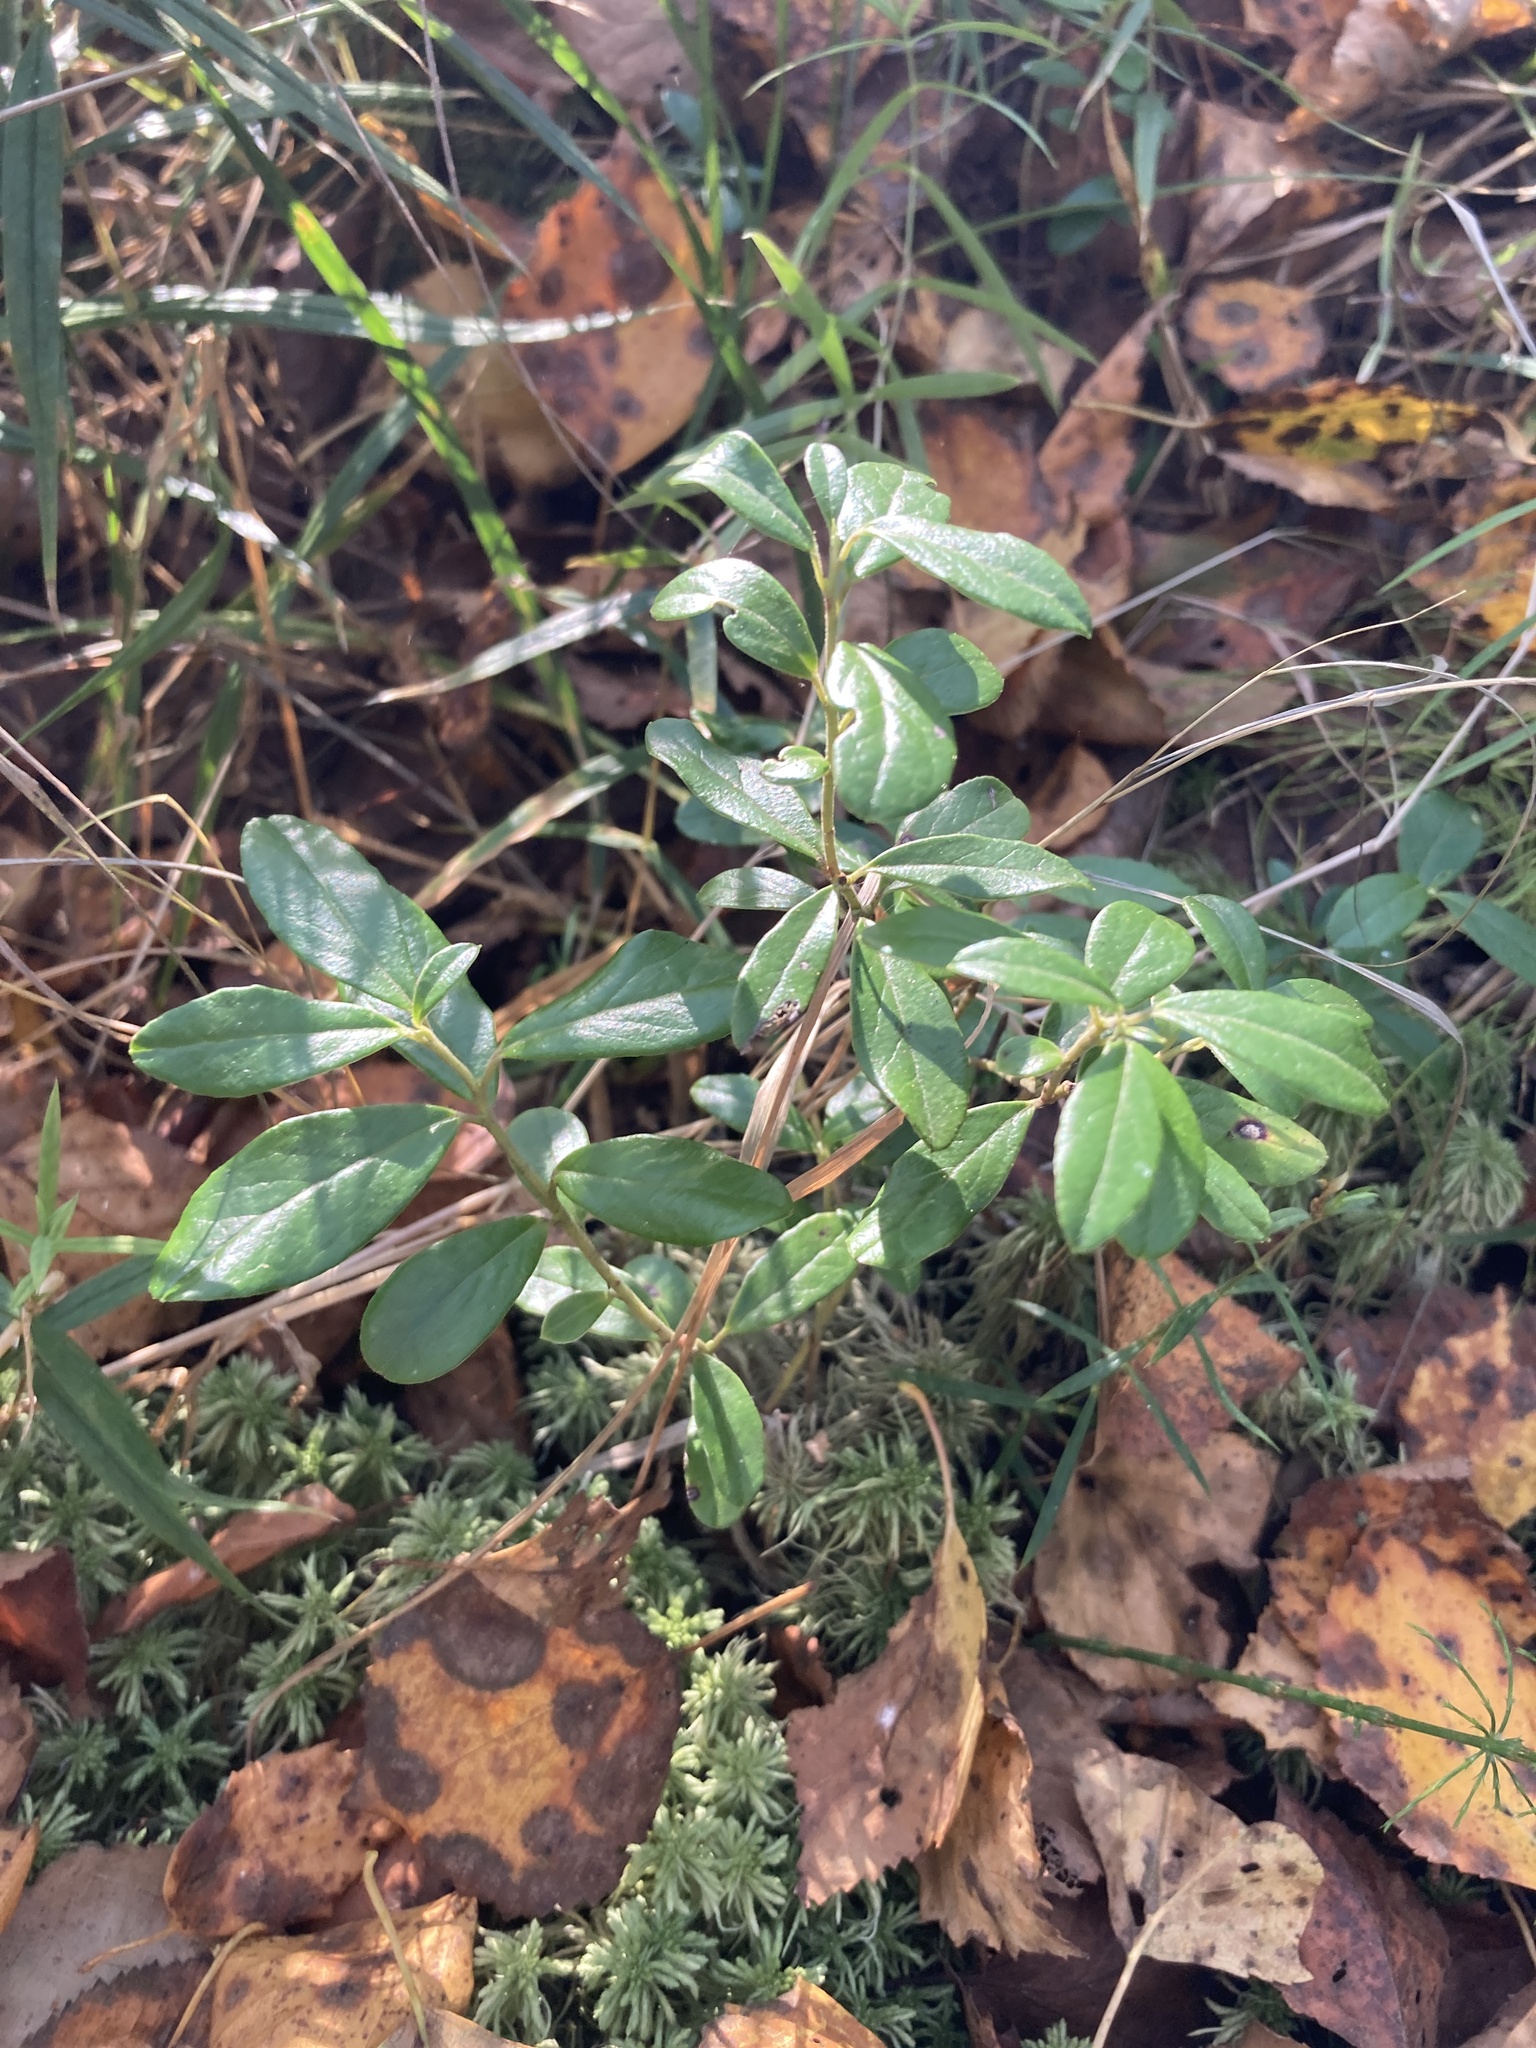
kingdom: Plantae
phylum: Tracheophyta
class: Magnoliopsida
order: Ericales
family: Ericaceae
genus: Vaccinium
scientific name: Vaccinium vitis-idaea
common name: Cowberry
